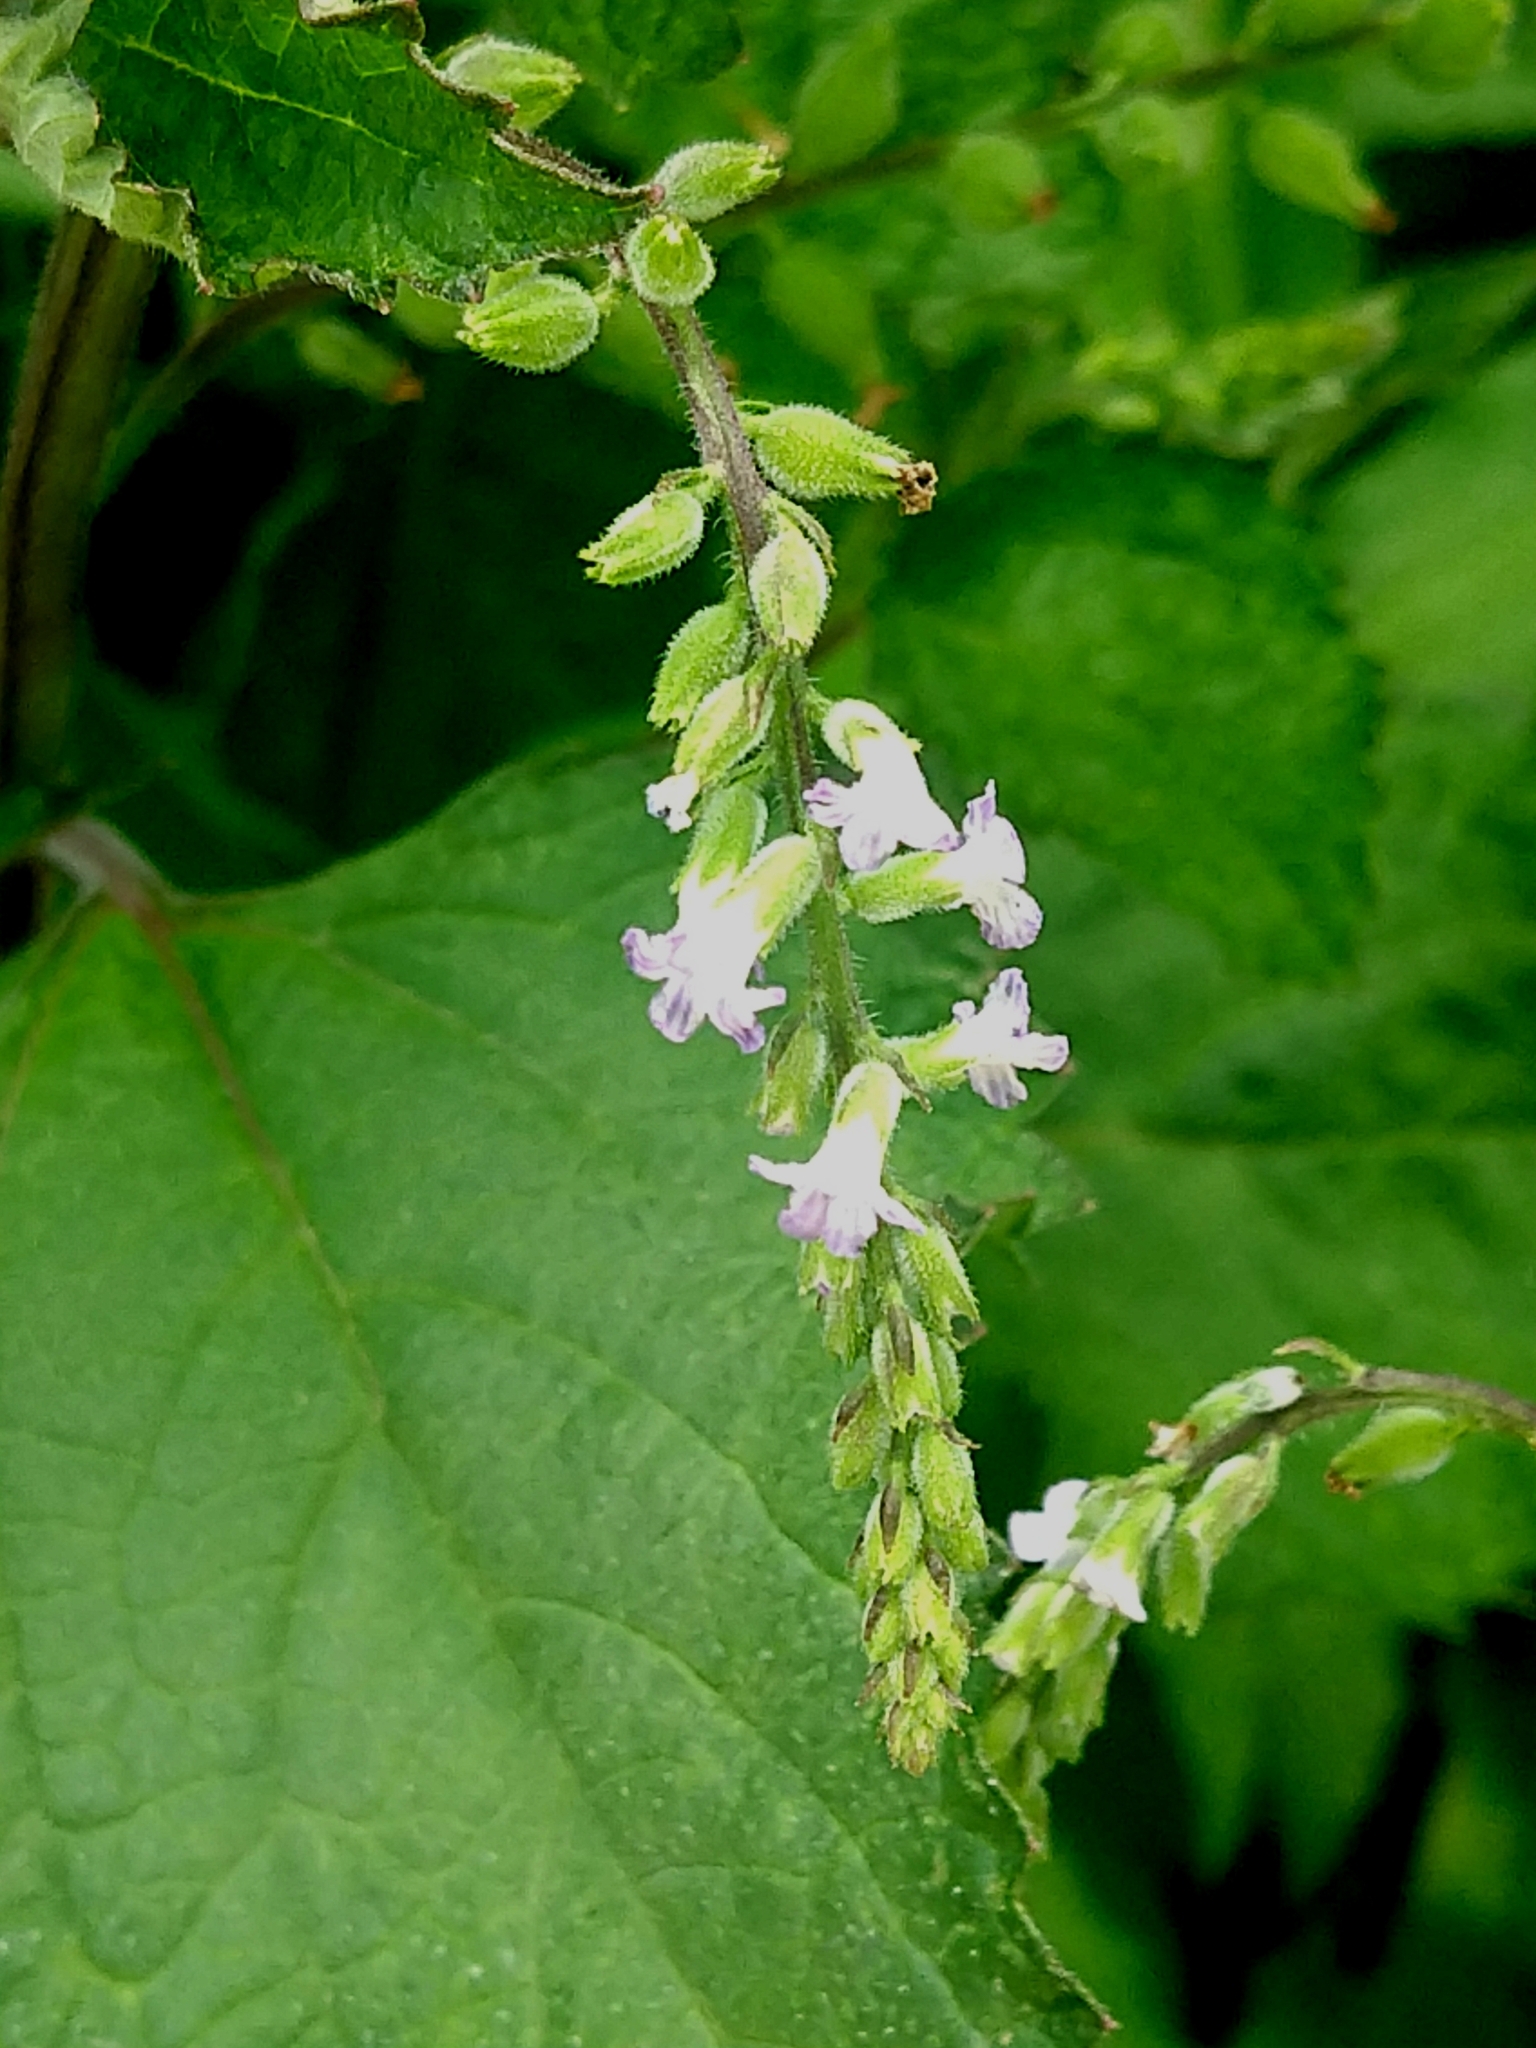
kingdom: Plantae
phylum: Tracheophyta
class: Magnoliopsida
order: Lamiales
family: Verbenaceae
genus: Priva
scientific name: Priva lappulacea
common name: Fasten-'pon-coat
